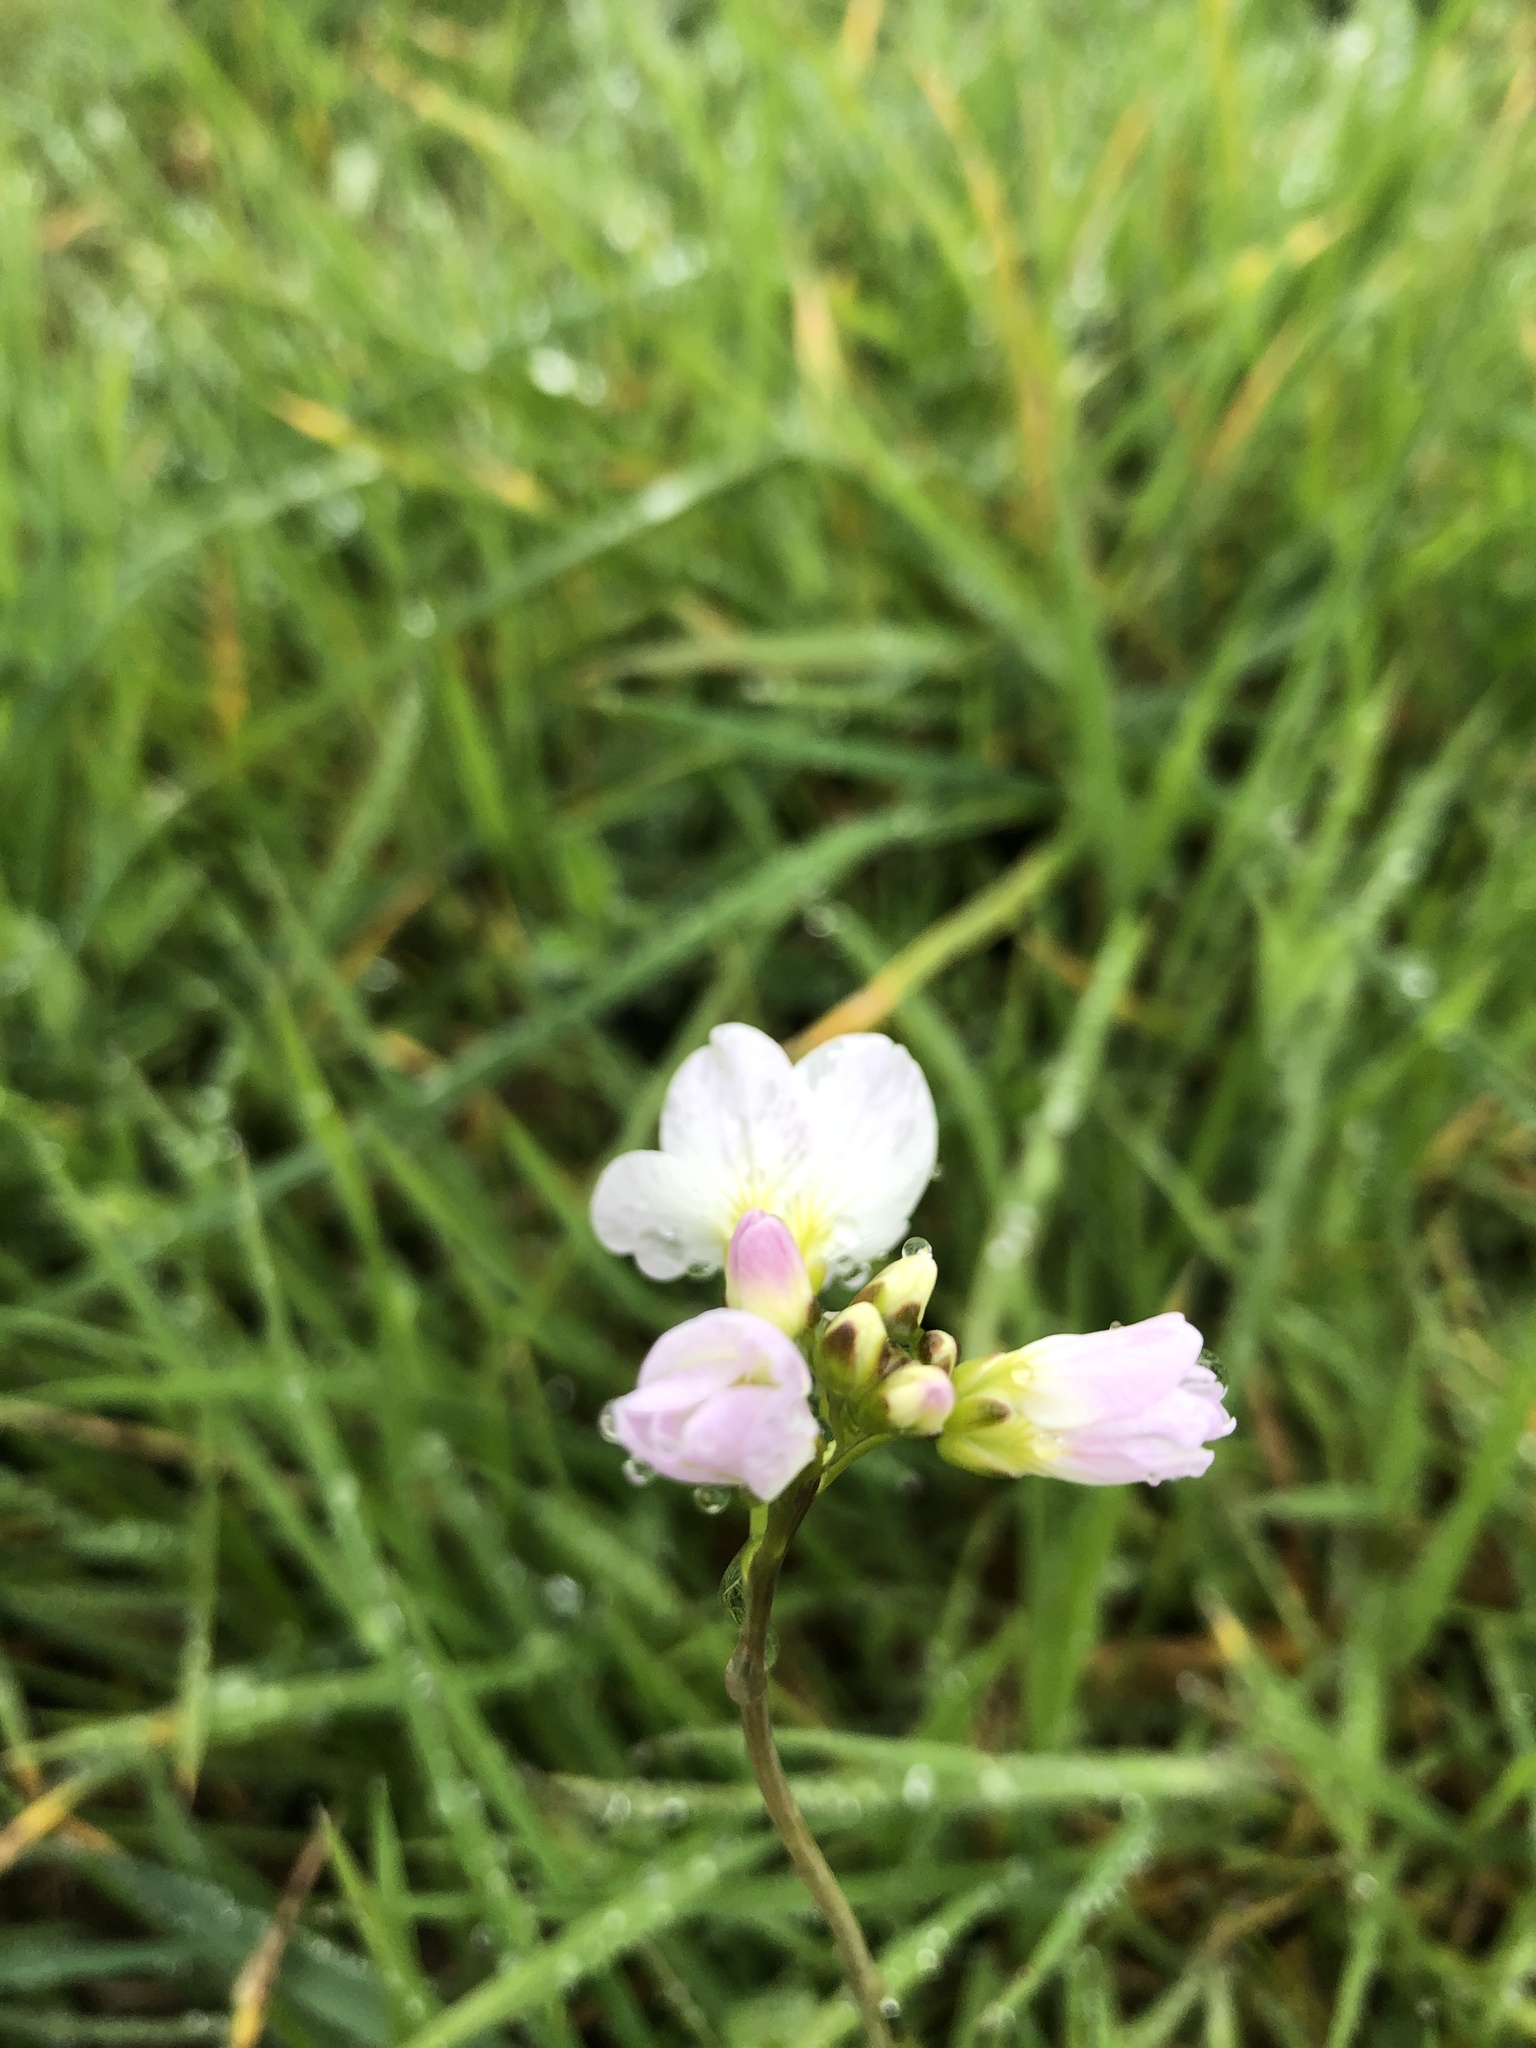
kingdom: Plantae
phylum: Tracheophyta
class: Magnoliopsida
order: Brassicales
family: Brassicaceae
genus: Cardamine
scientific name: Cardamine pratensis
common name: Cuckoo flower
